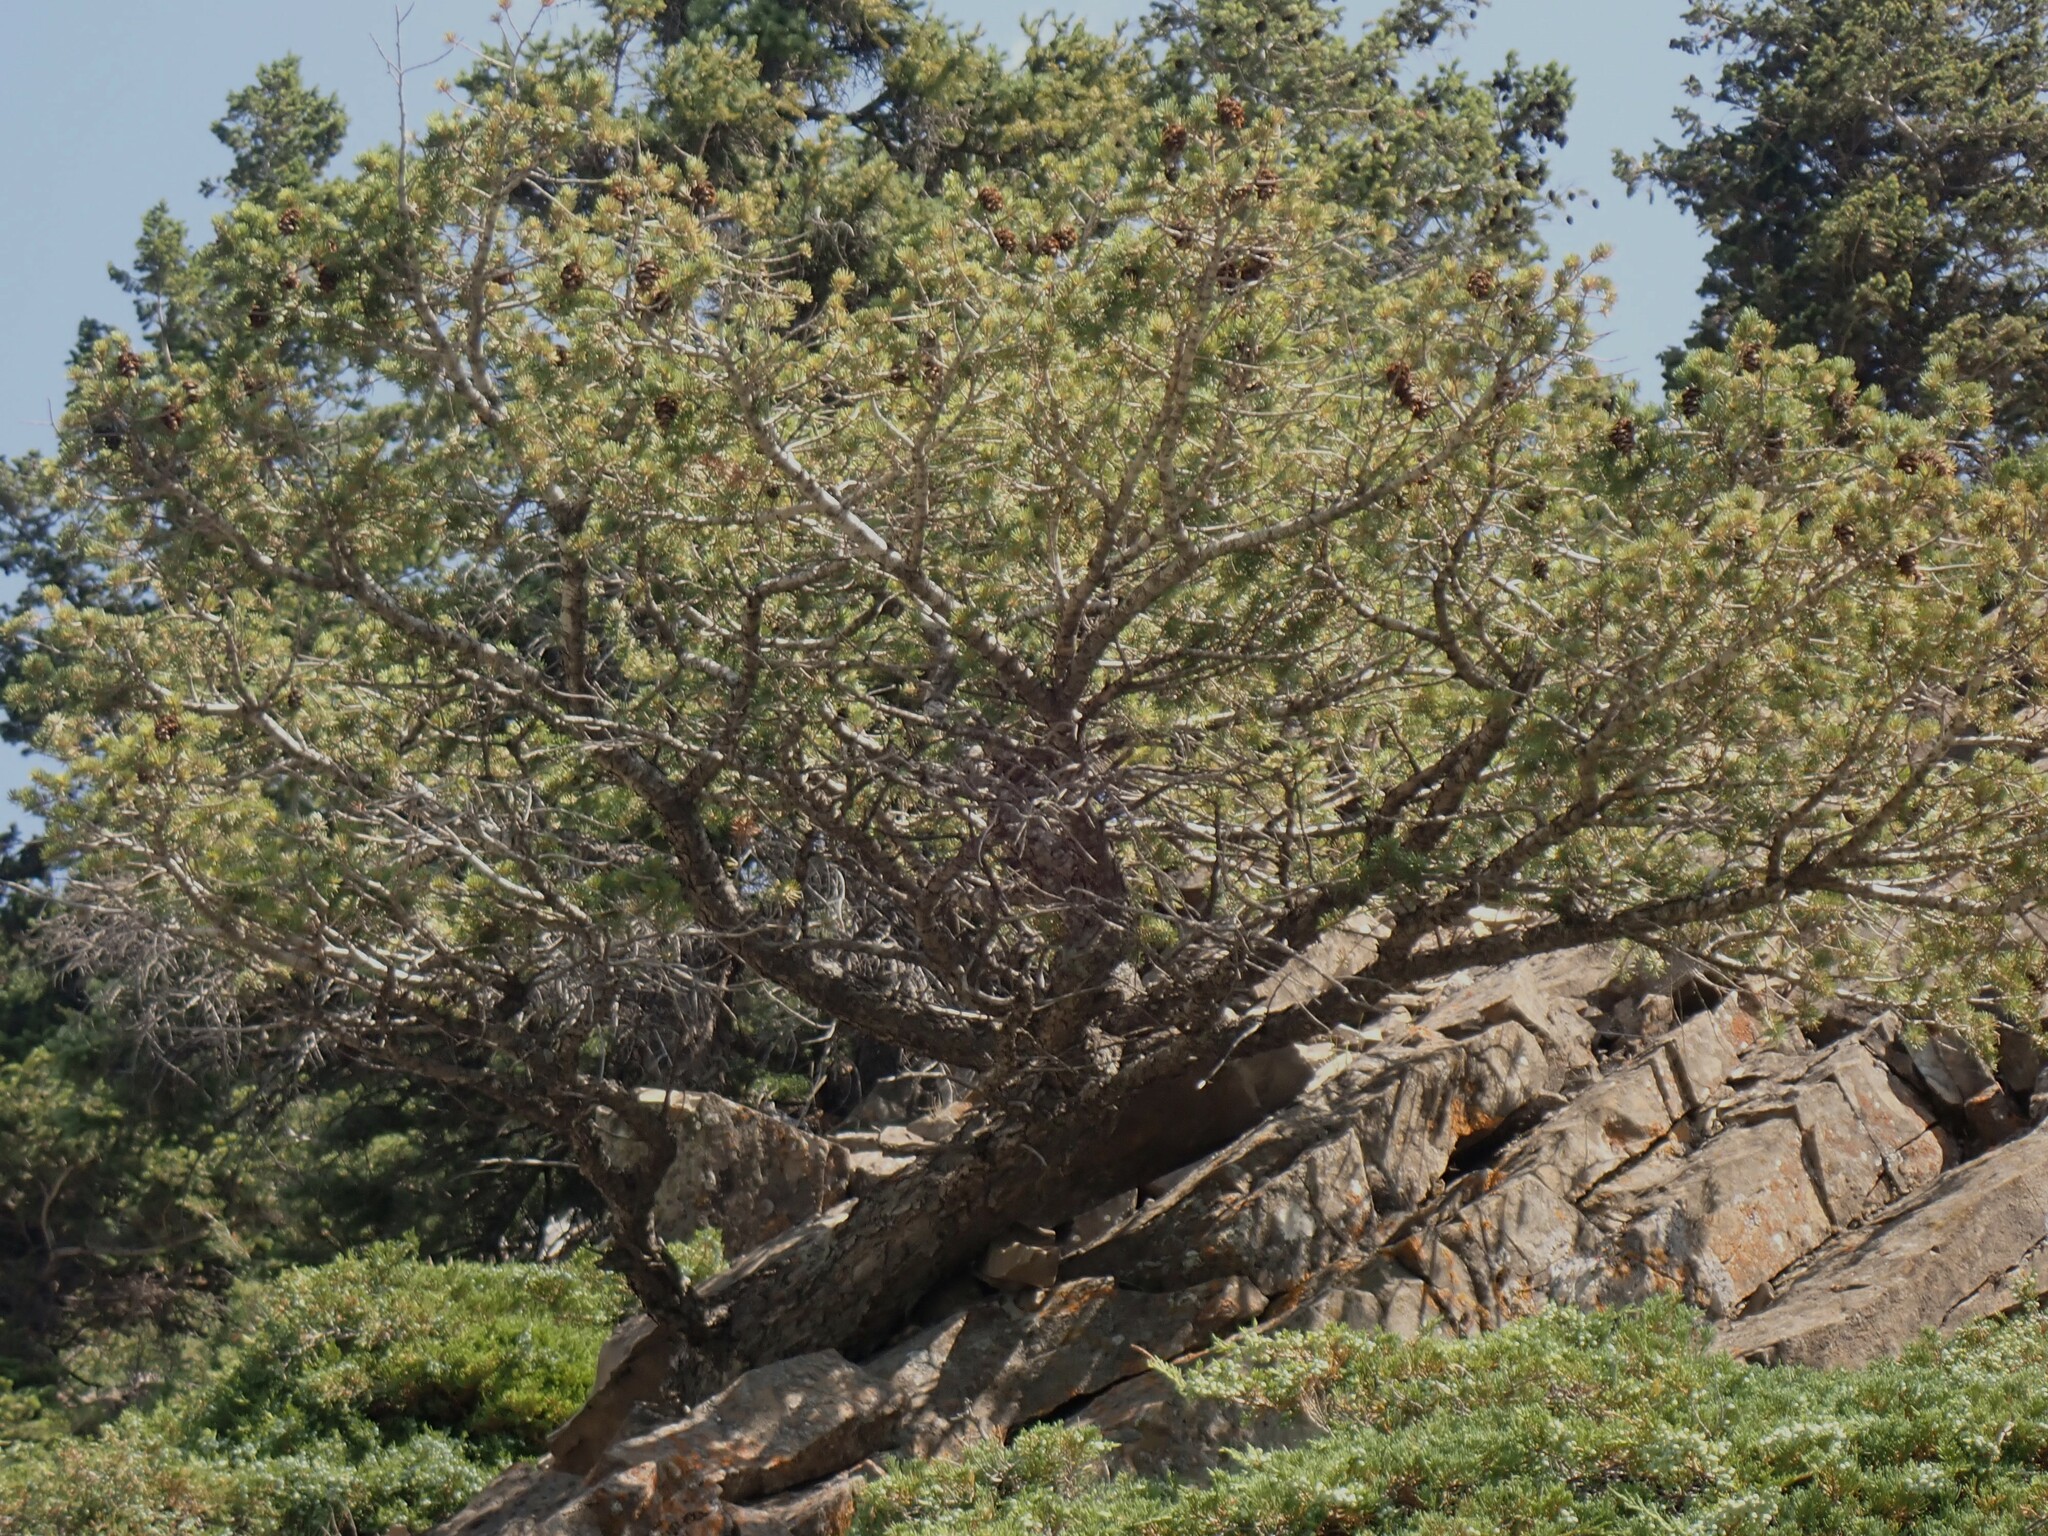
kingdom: Plantae
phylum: Tracheophyta
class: Pinopsida
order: Pinales
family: Pinaceae
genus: Pinus
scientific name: Pinus flexilis
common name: Limber pine
